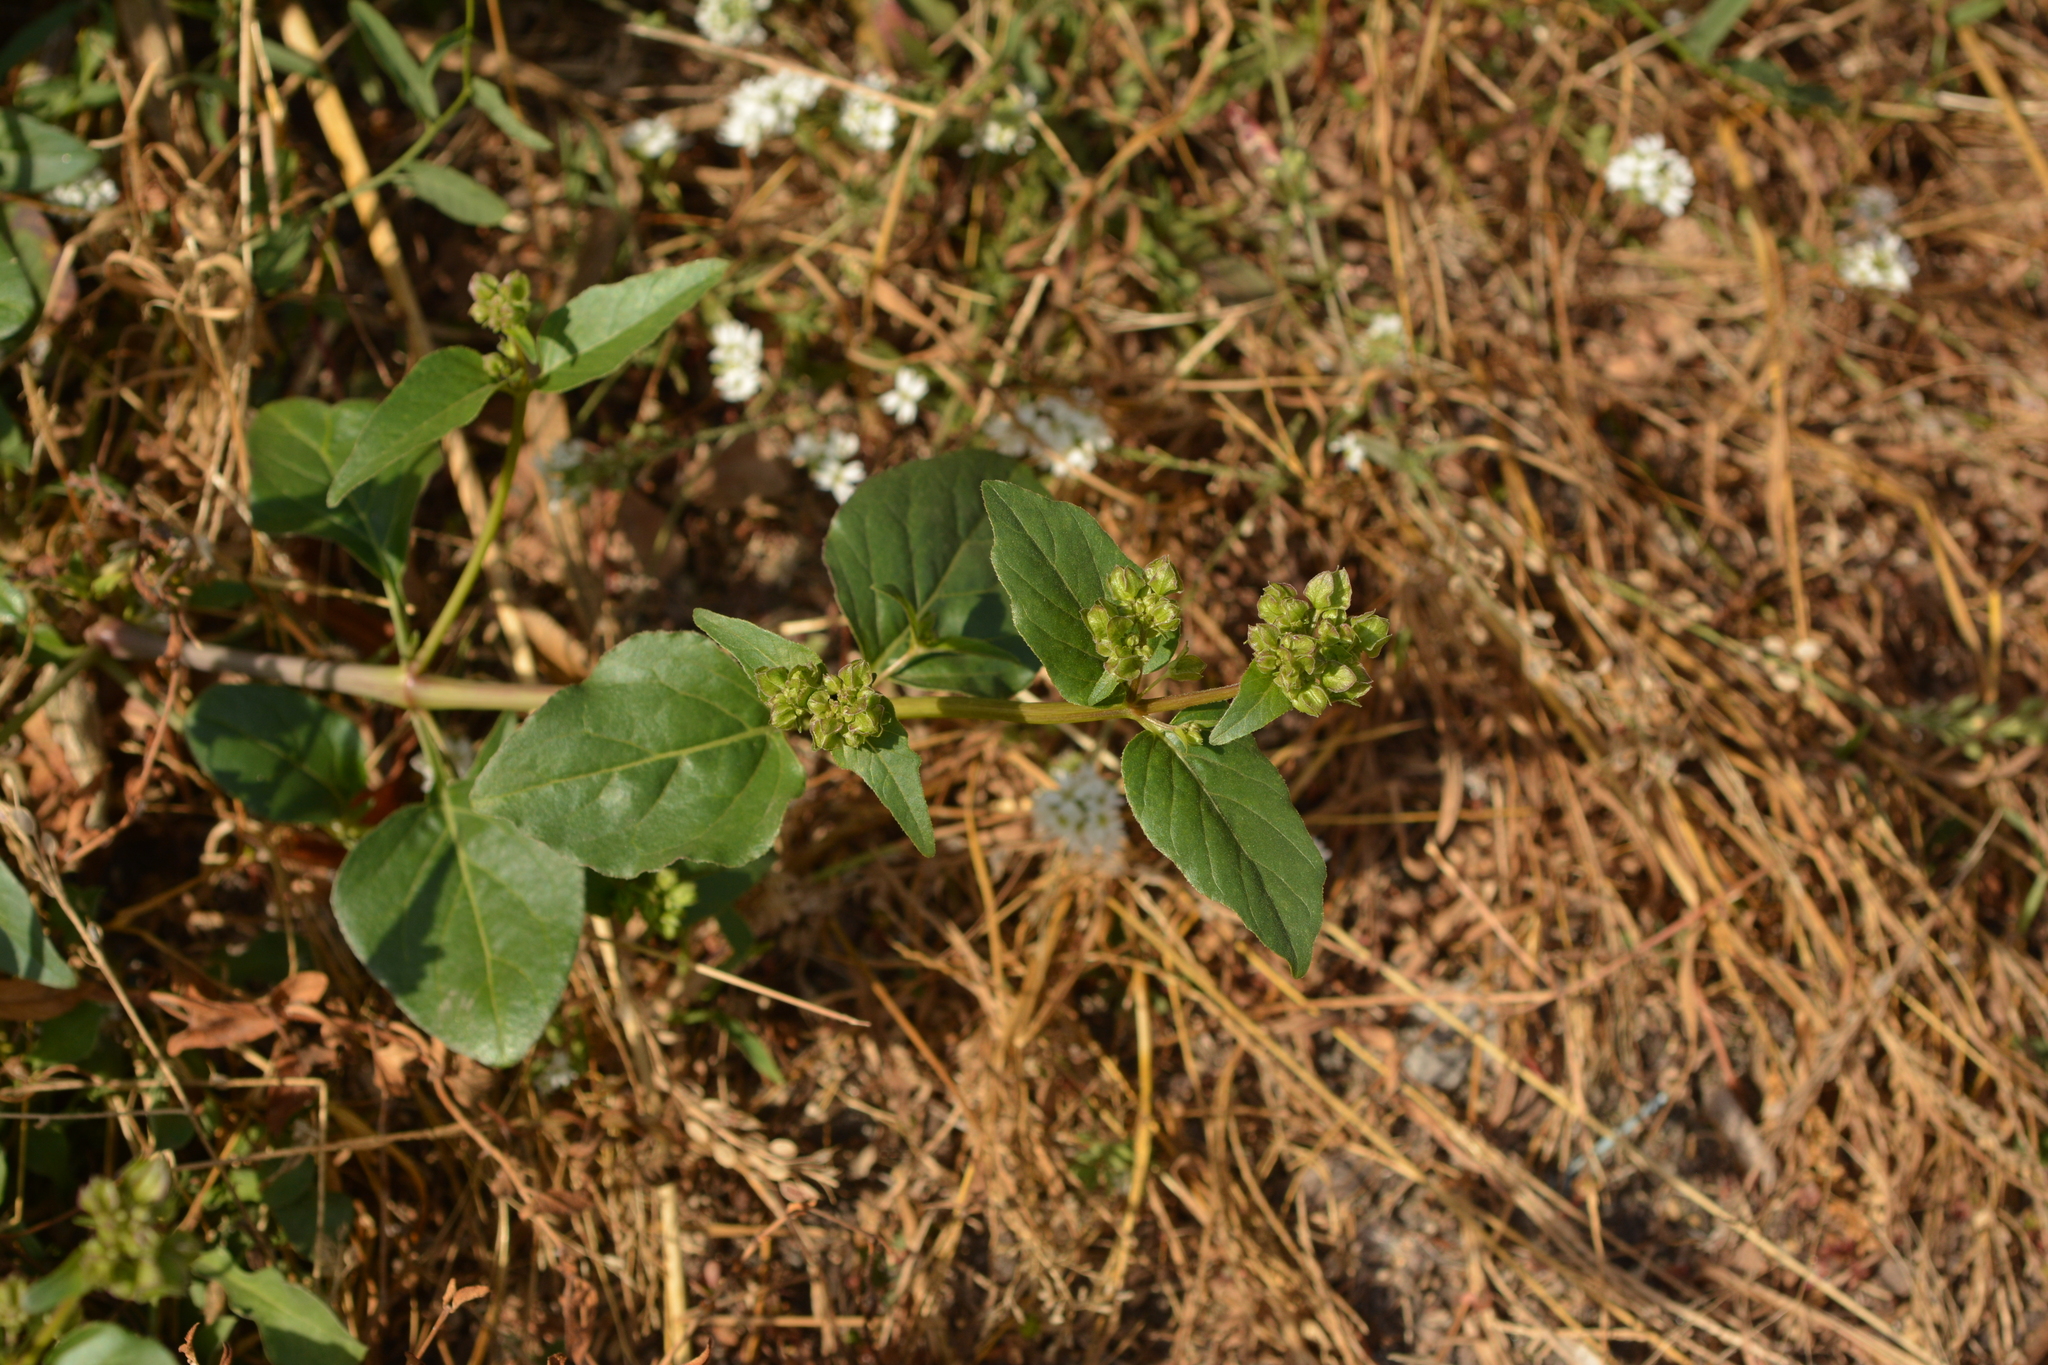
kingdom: Plantae
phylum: Tracheophyta
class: Magnoliopsida
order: Caryophyllales
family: Nyctaginaceae
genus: Mirabilis
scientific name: Mirabilis nyctaginea
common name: Umbrella wort
